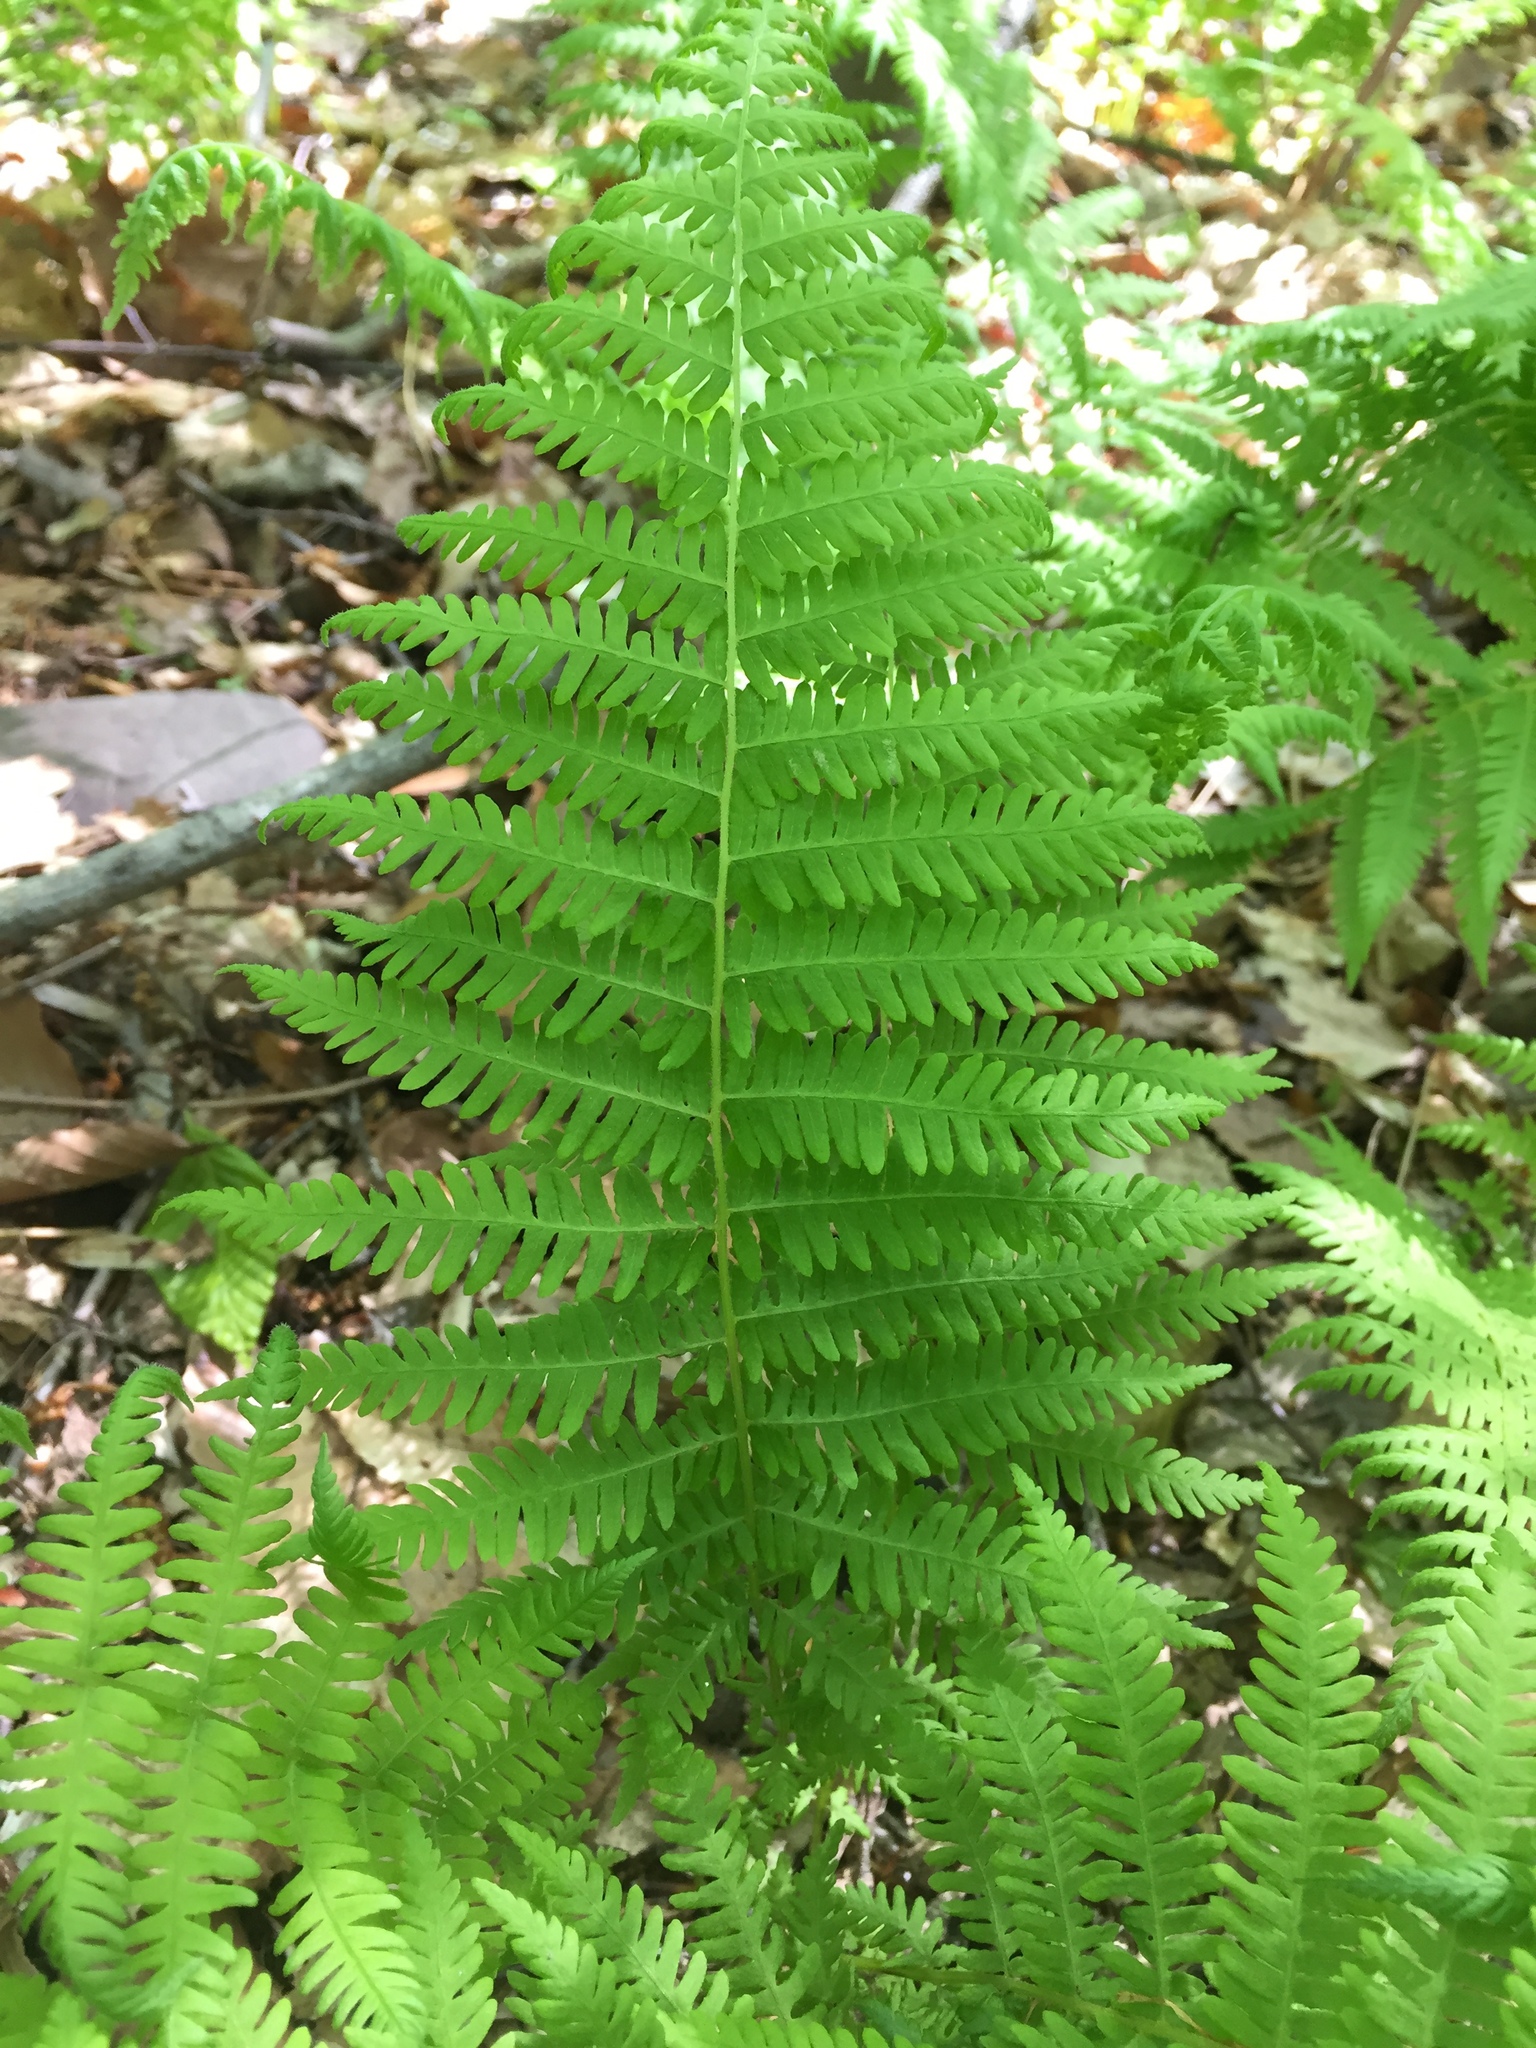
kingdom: Plantae
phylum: Tracheophyta
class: Polypodiopsida
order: Polypodiales
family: Thelypteridaceae
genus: Amauropelta
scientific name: Amauropelta noveboracensis
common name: New york fern
